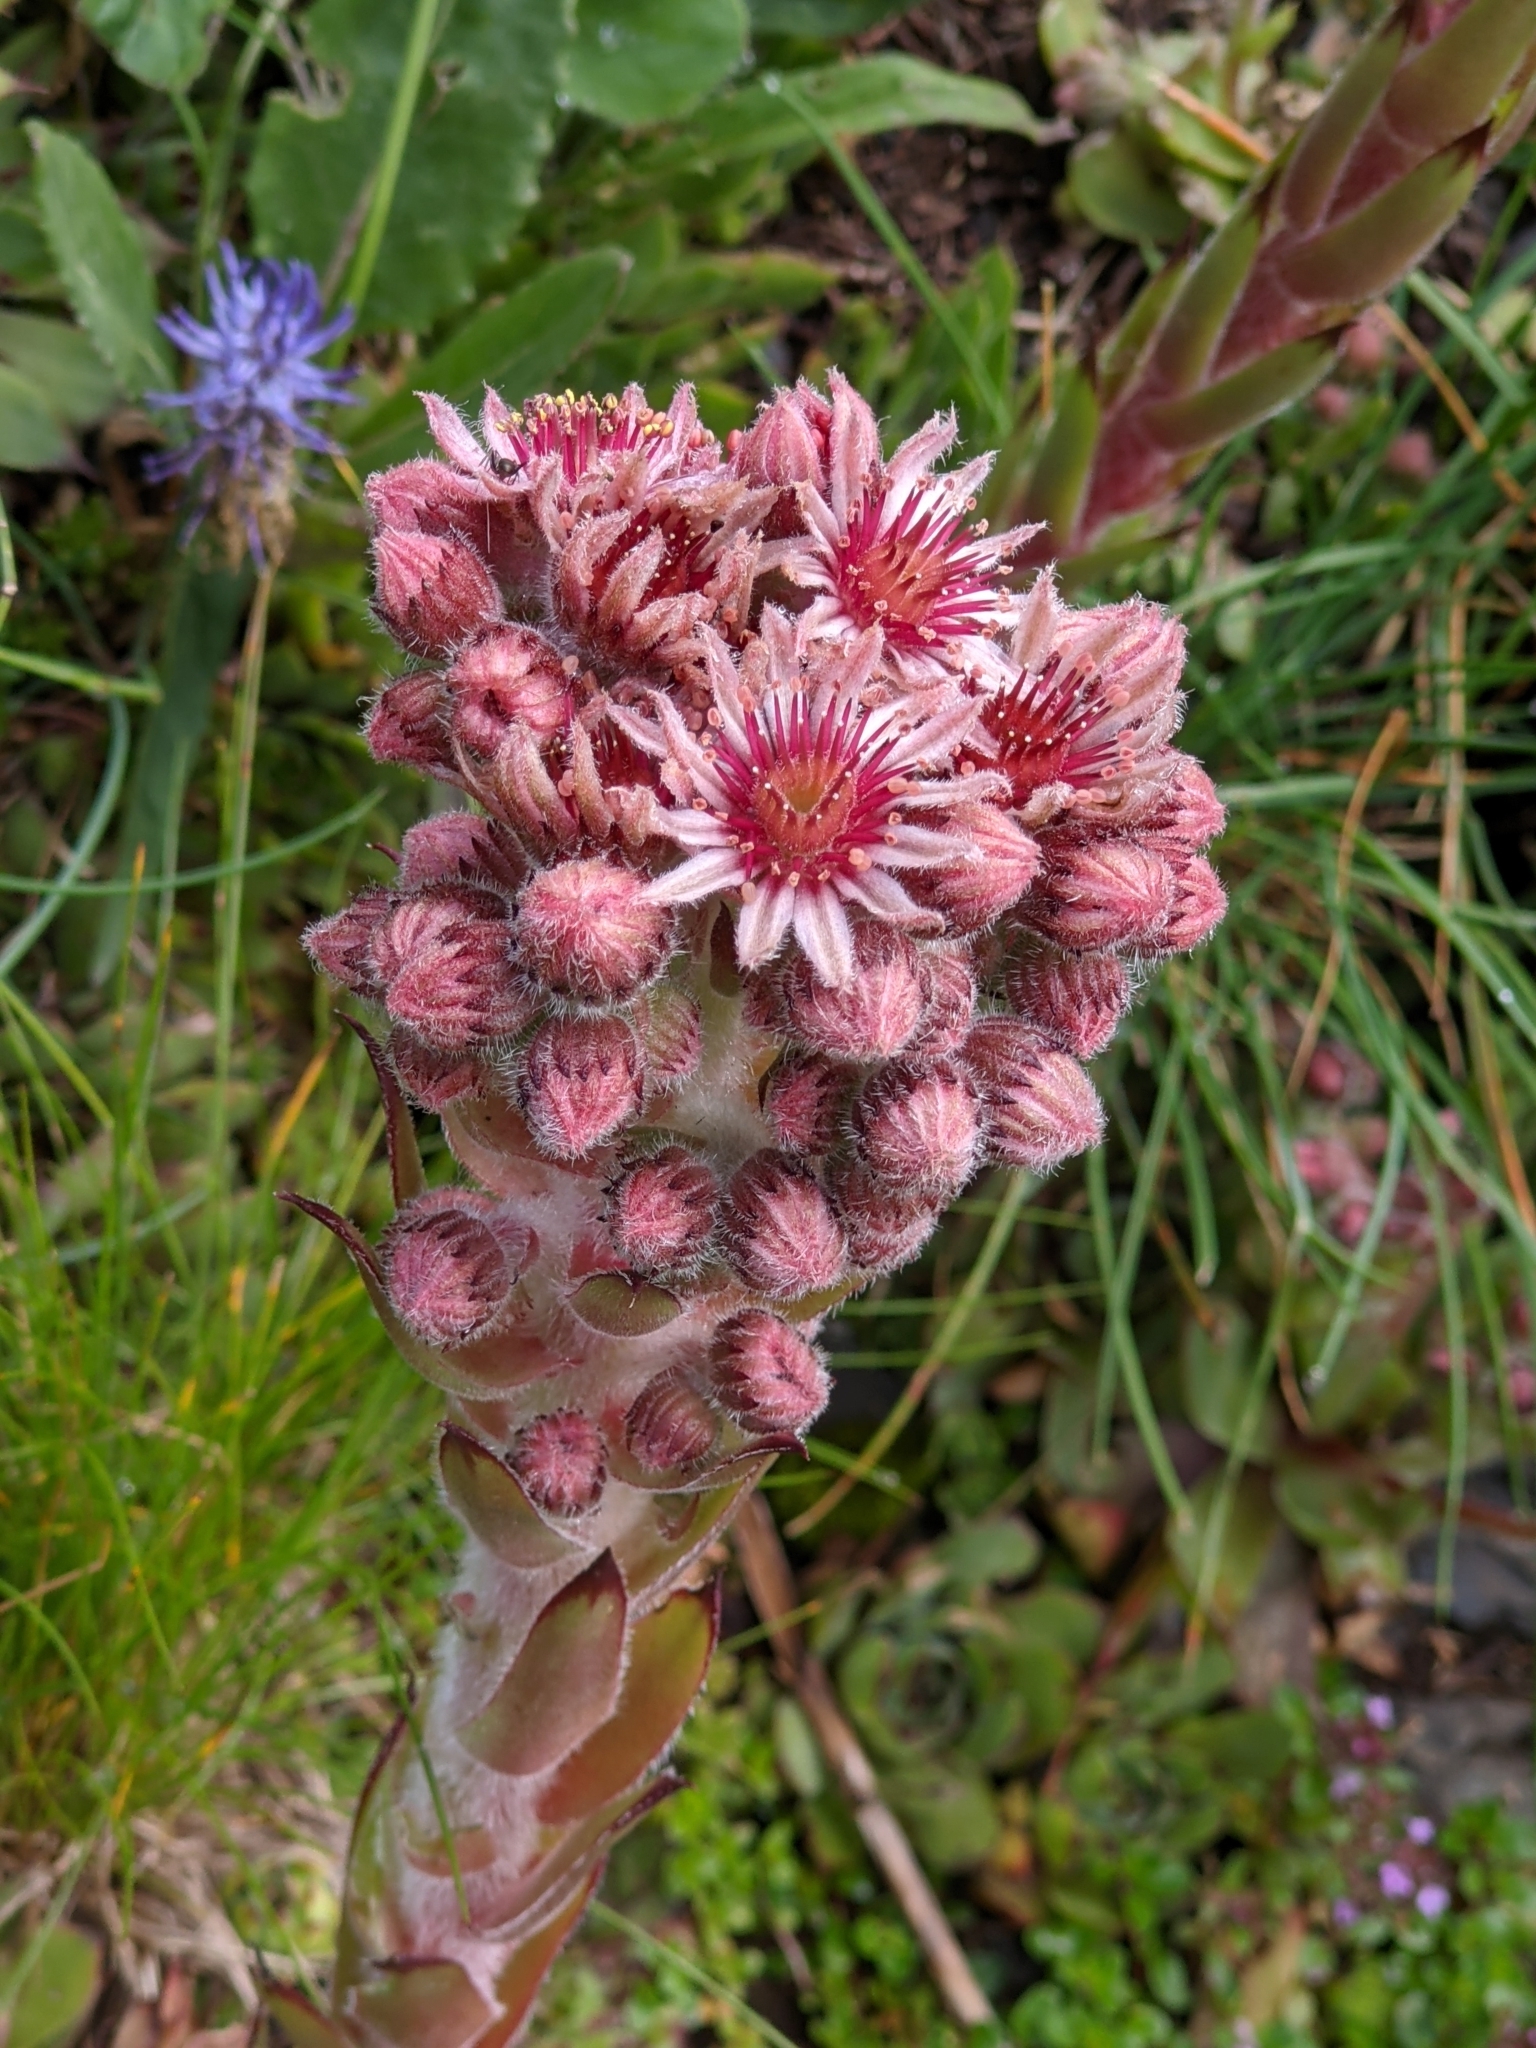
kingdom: Plantae
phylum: Tracheophyta
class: Magnoliopsida
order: Saxifragales
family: Crassulaceae
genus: Sempervivum
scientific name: Sempervivum tectorum
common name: House-leek
